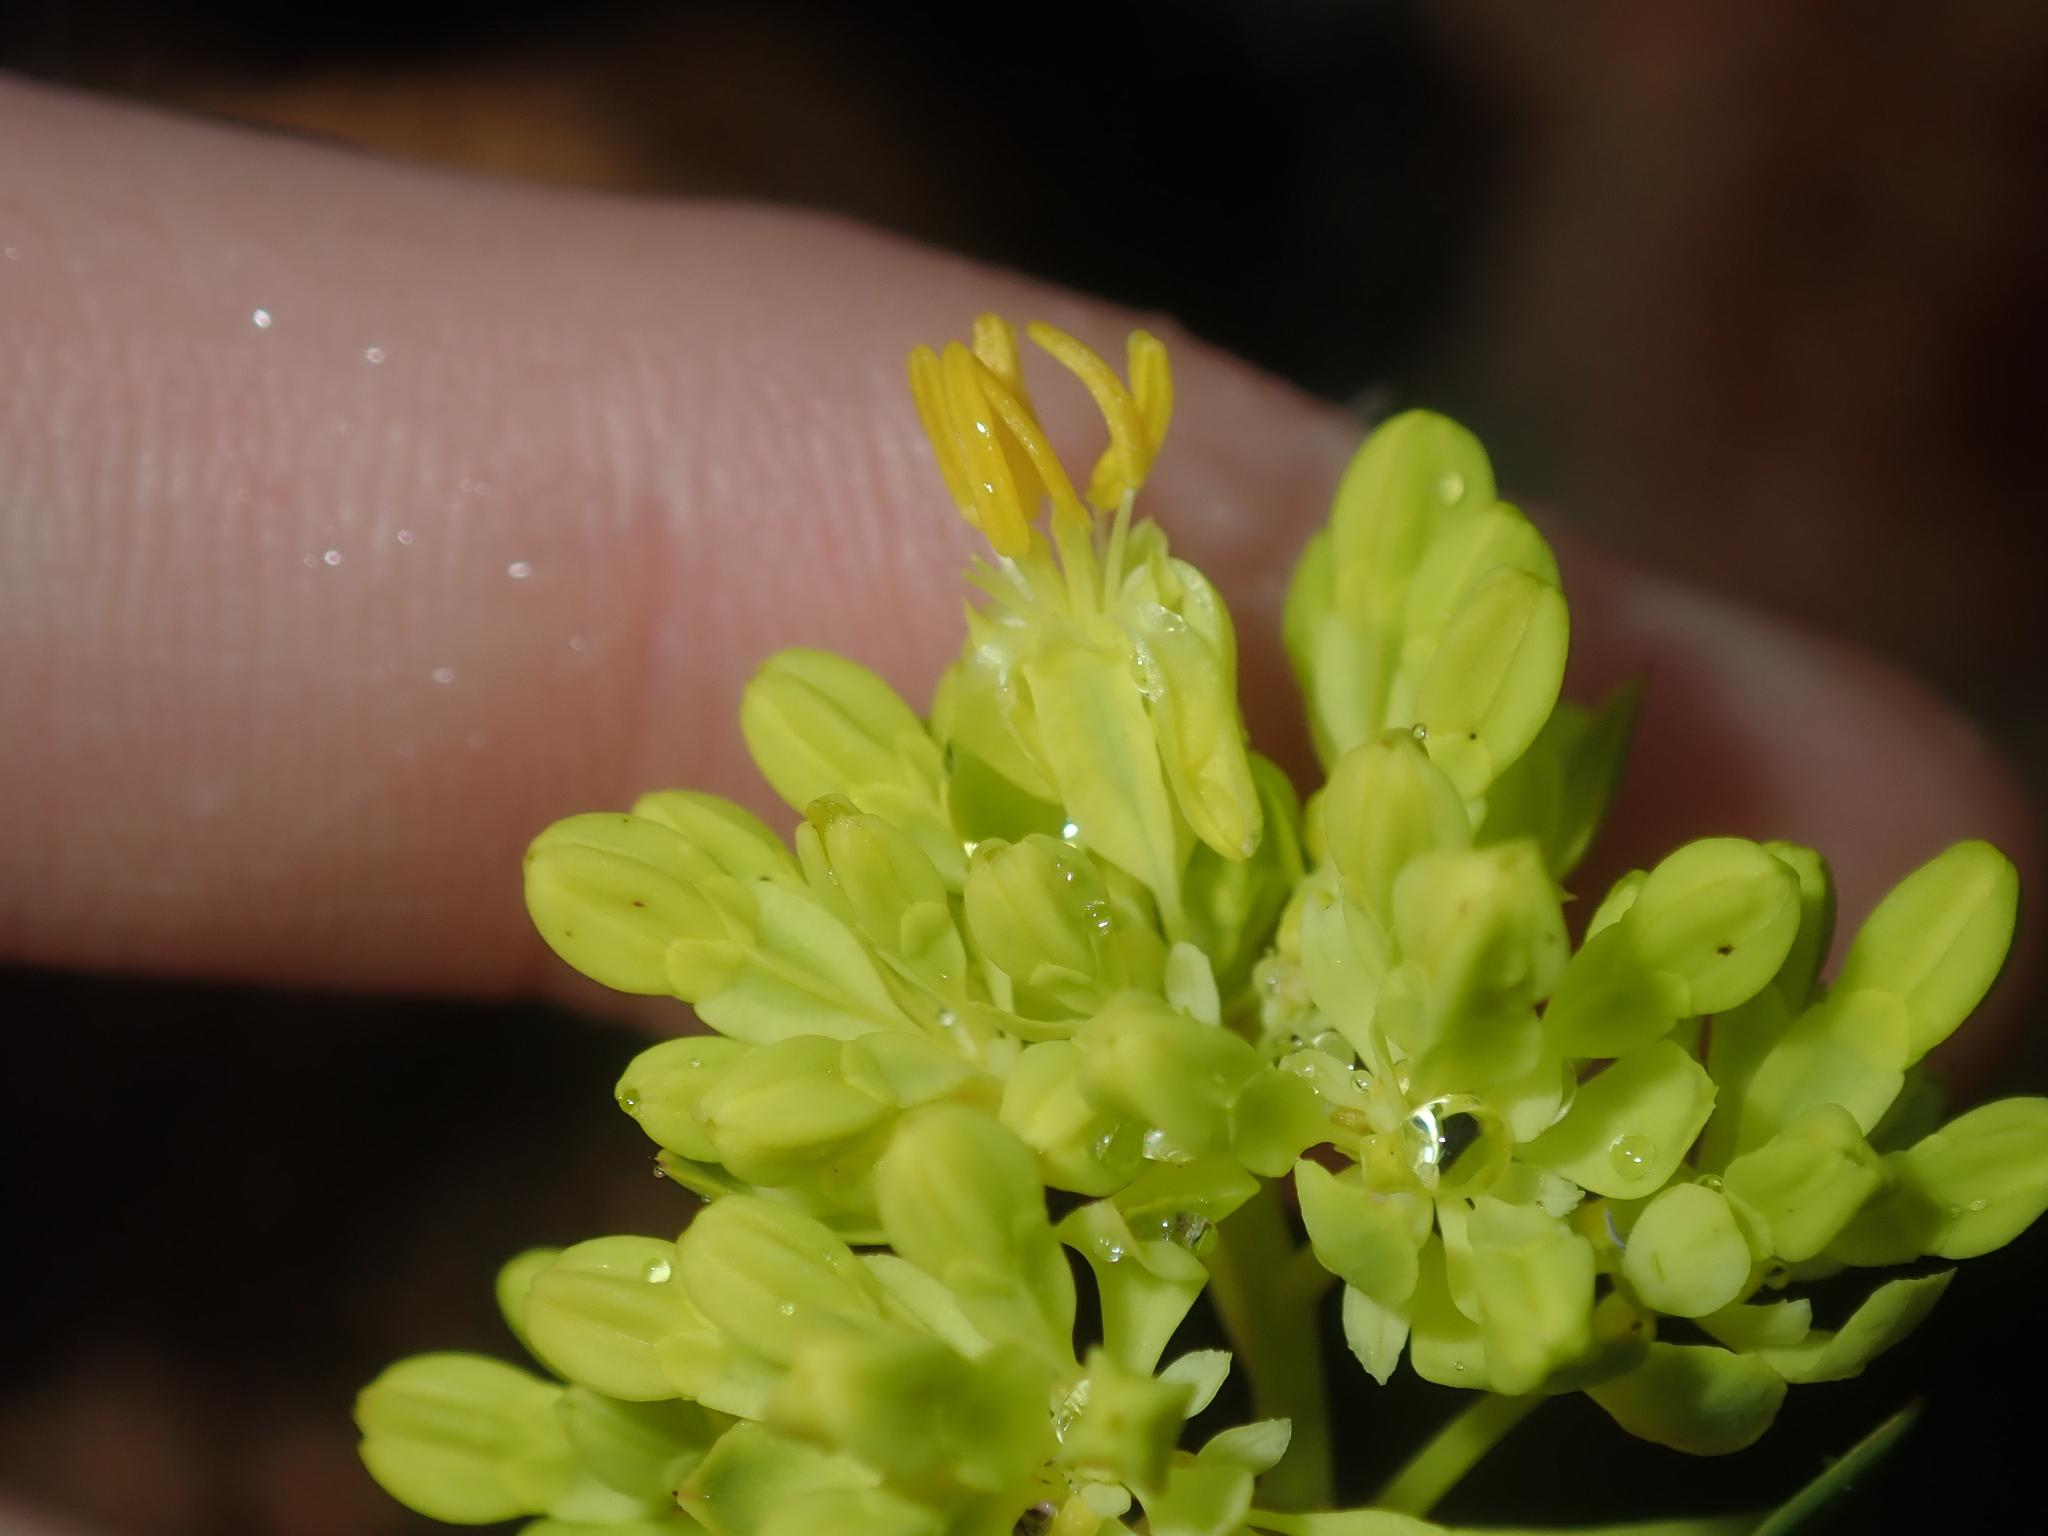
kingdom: Plantae
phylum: Tracheophyta
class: Magnoliopsida
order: Saxifragales
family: Haloragaceae
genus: Glischrocaryon
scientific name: Glischrocaryon aureum
